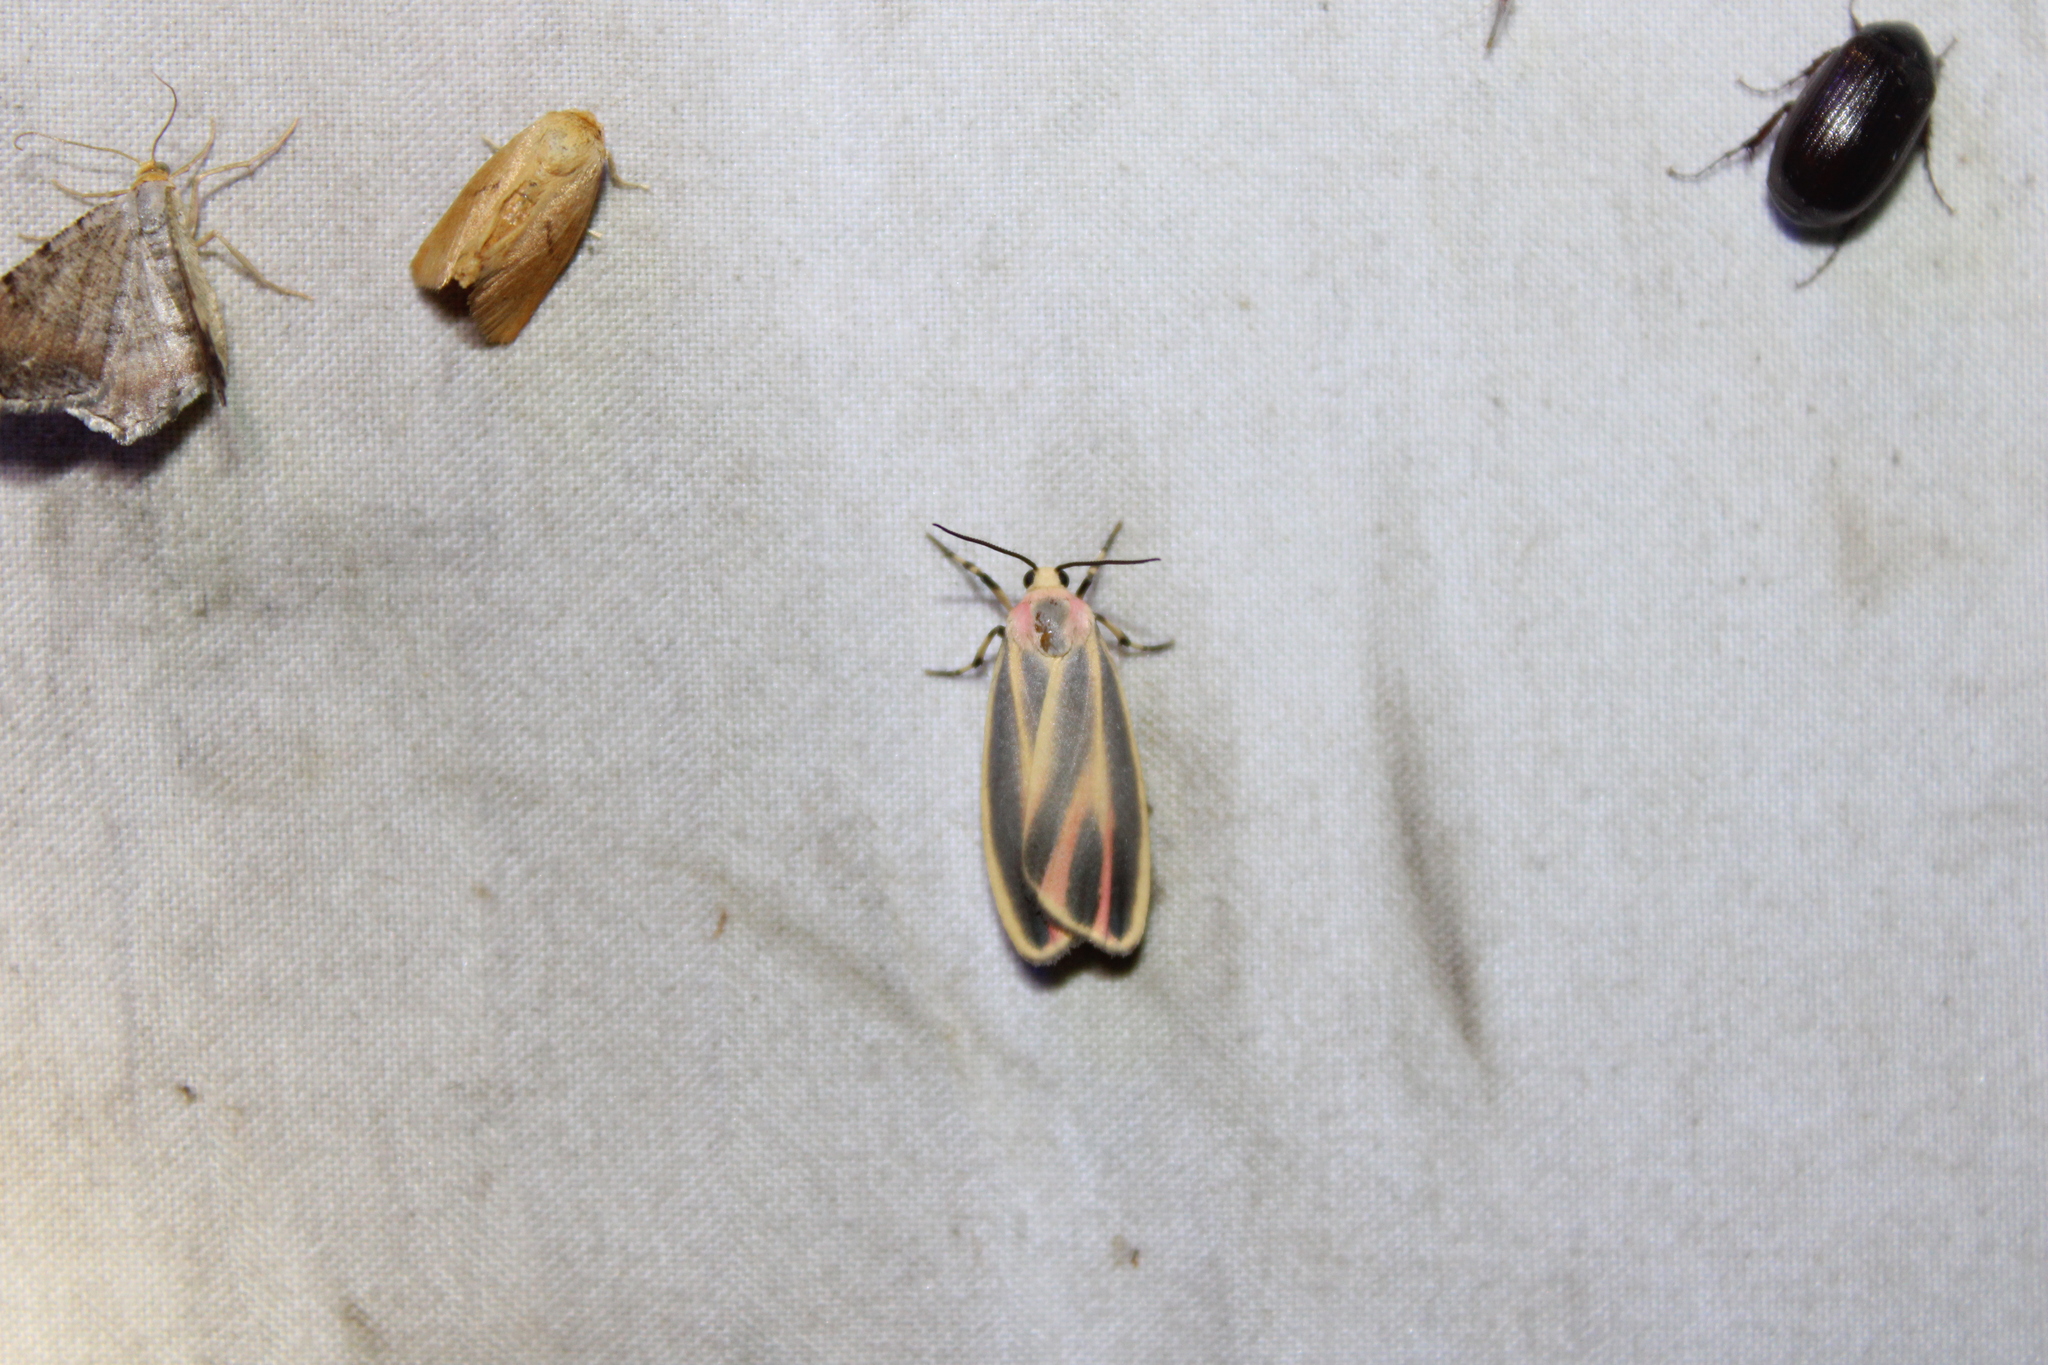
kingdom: Animalia
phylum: Arthropoda
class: Insecta
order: Lepidoptera
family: Erebidae
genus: Hypoprepia
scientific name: Hypoprepia fucosa
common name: Painted lichen moth
